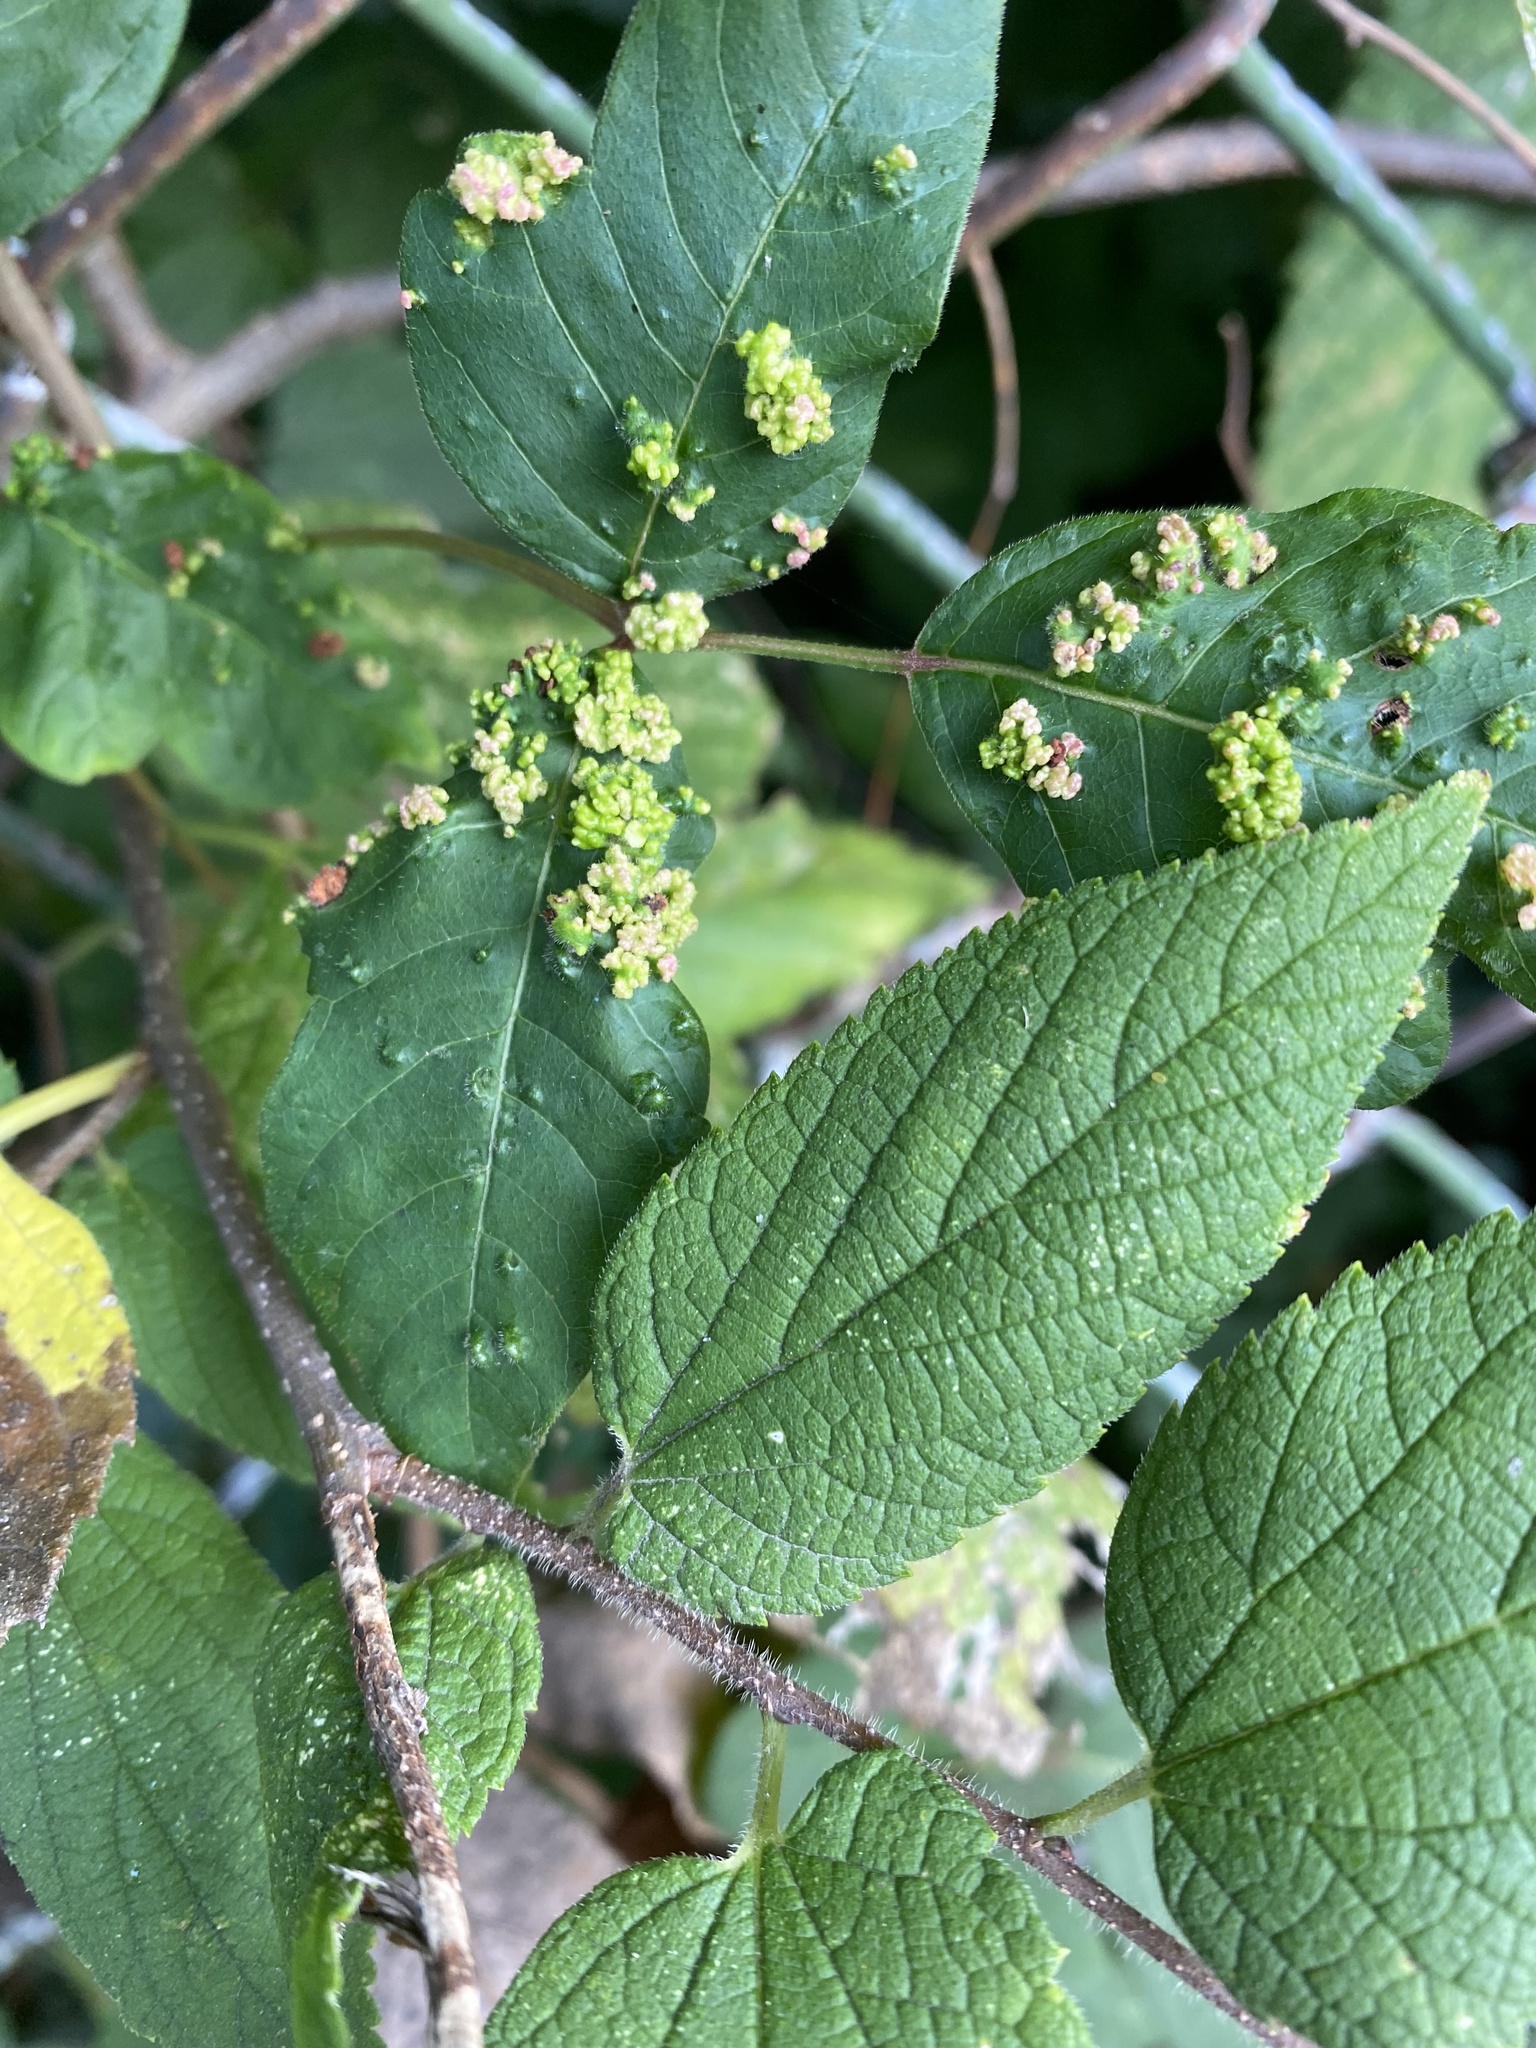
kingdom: Animalia
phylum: Arthropoda
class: Arachnida
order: Trombidiformes
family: Eriophyidae
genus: Aculops
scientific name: Aculops
